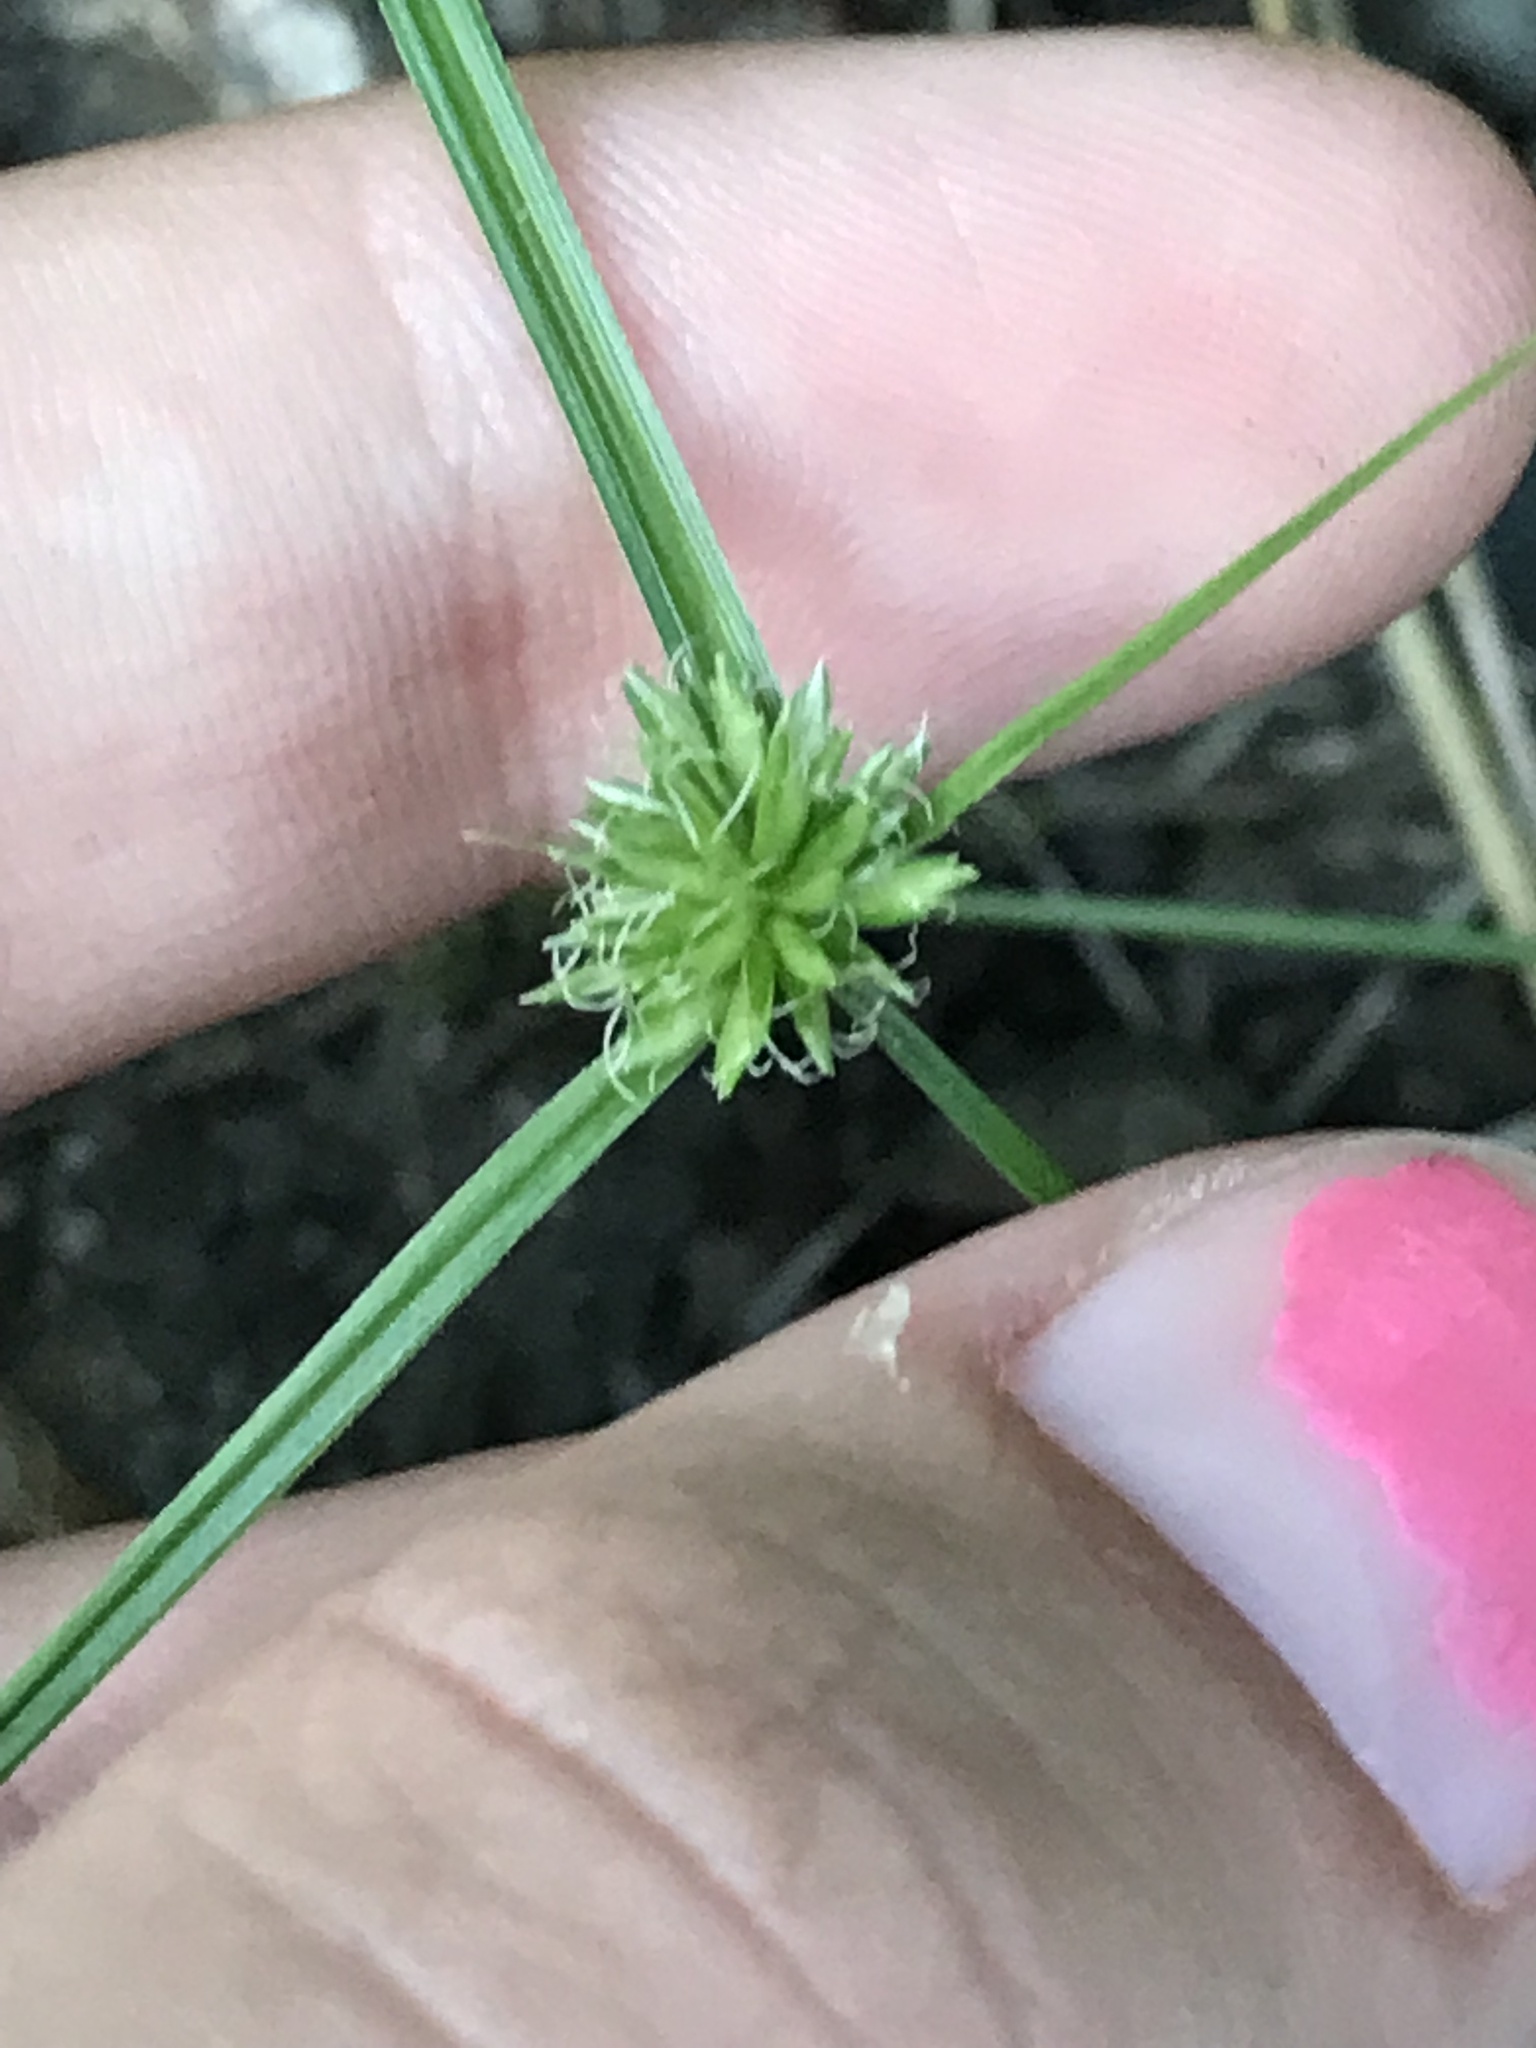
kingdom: Plantae
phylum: Tracheophyta
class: Liliopsida
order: Poales
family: Cyperaceae
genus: Cyperus
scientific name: Cyperus lupulinus
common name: Great plains flatsedge
